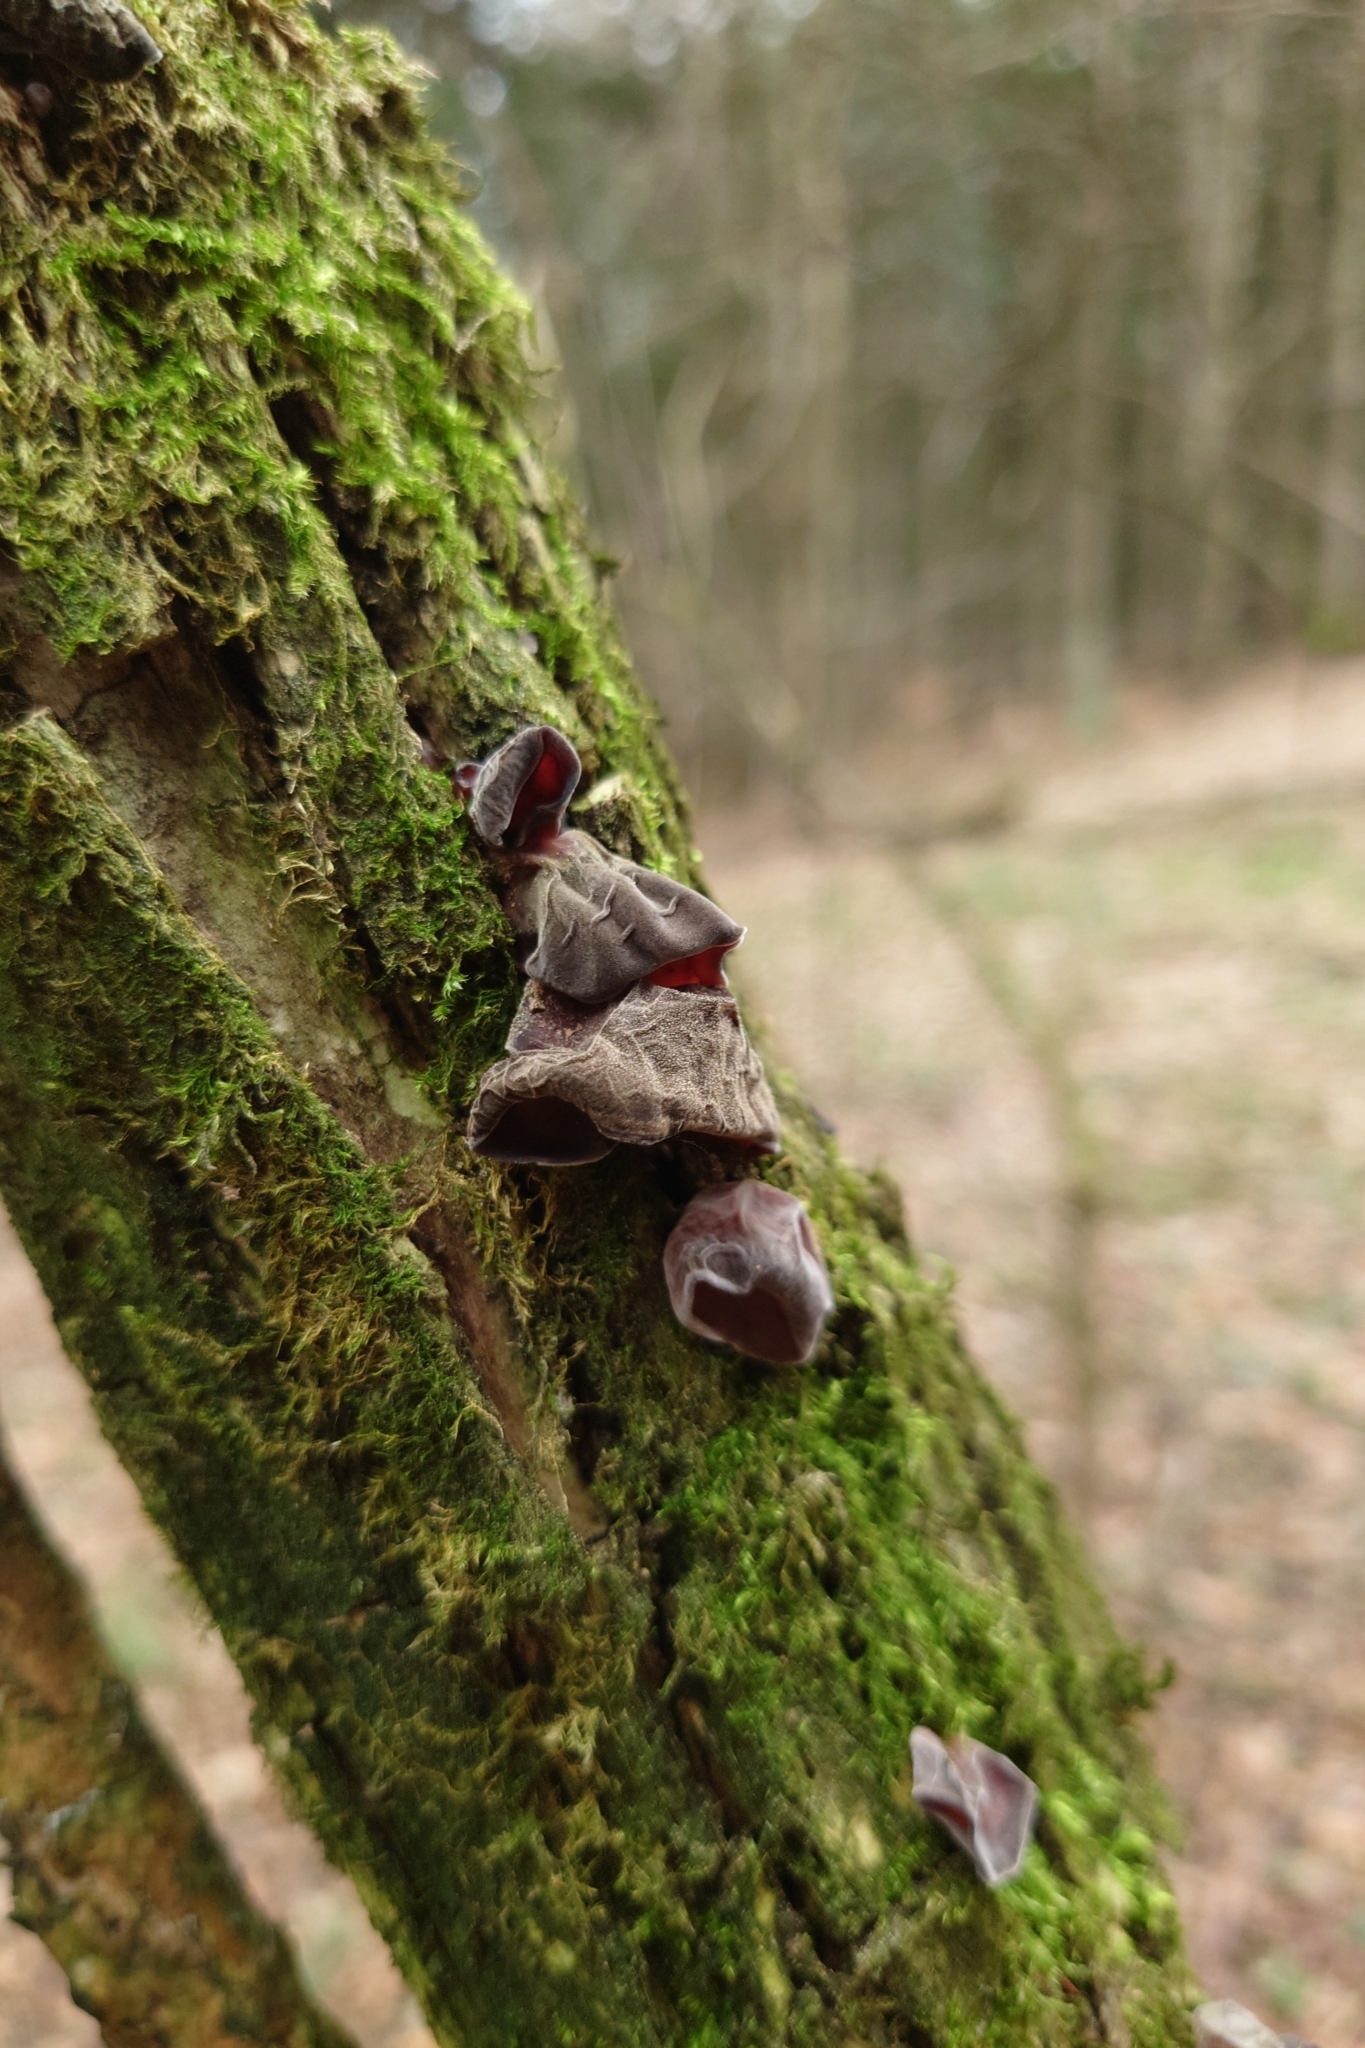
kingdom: Fungi
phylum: Basidiomycota
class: Agaricomycetes
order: Auriculariales
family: Auriculariaceae
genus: Auricularia
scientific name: Auricularia auricula-judae
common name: Jelly ear
